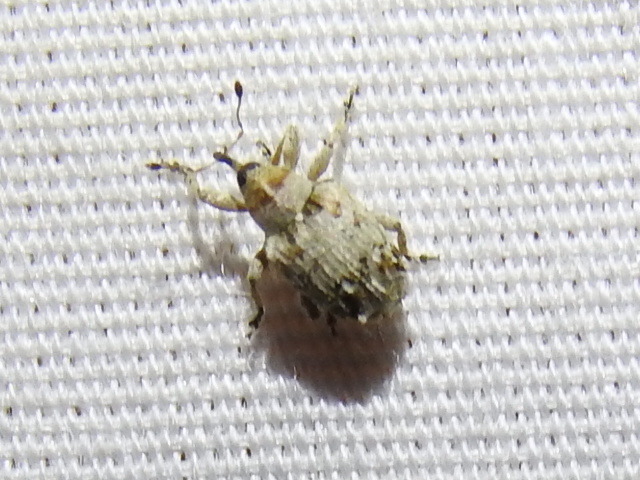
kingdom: Animalia
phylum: Arthropoda
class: Insecta
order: Coleoptera
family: Curculionidae
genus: Neotylopterus
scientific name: Neotylopterus transversus
